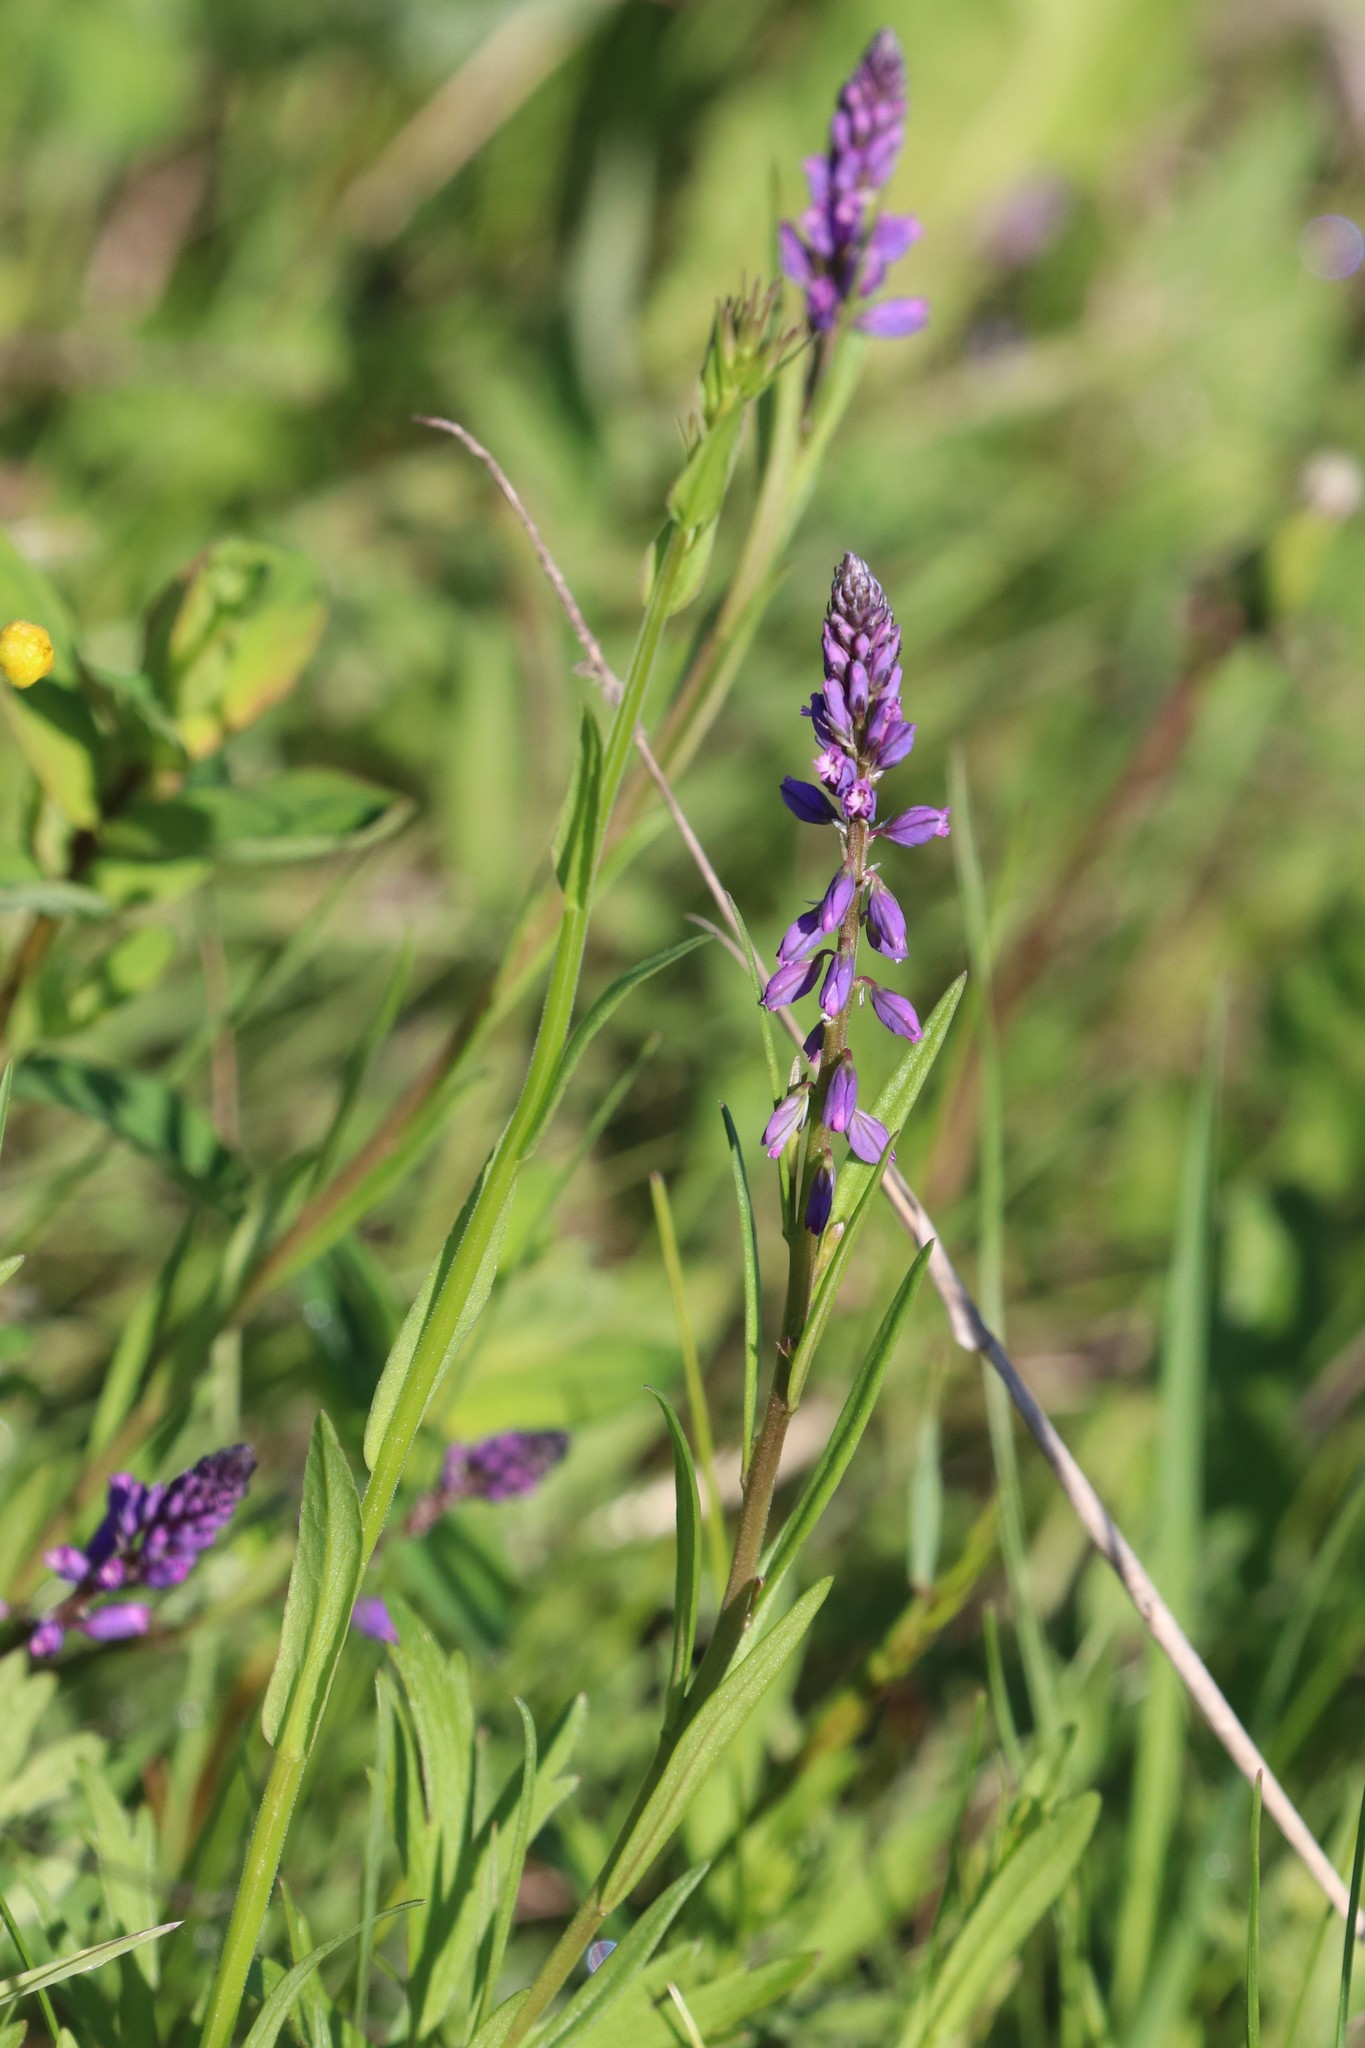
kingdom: Plantae
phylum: Tracheophyta
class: Magnoliopsida
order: Fabales
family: Polygalaceae
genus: Polygala
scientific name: Polygala comosa
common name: Tufted milkwort
